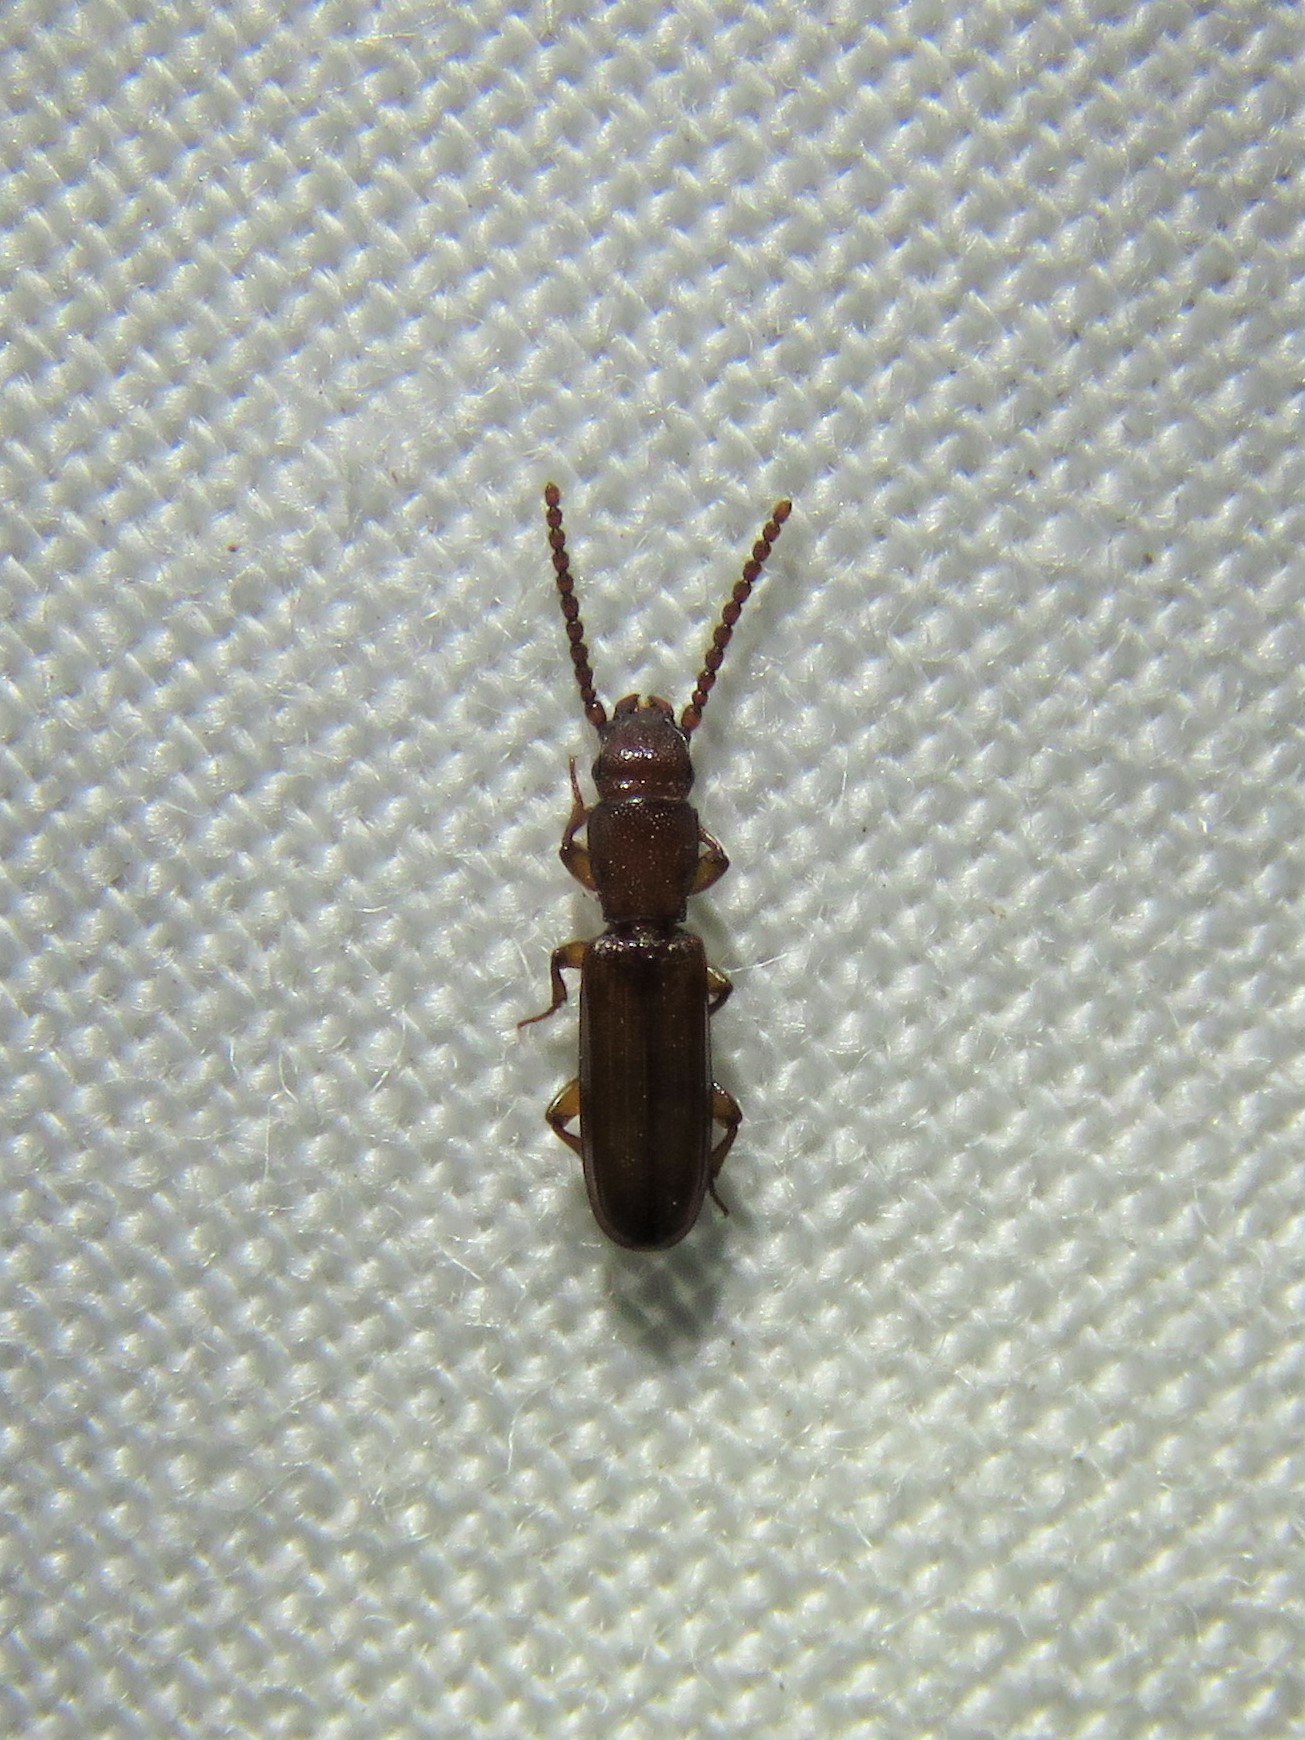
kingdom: Animalia
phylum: Arthropoda
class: Insecta
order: Coleoptera
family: Passandridae
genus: Catogenus
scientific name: Catogenus rufus
